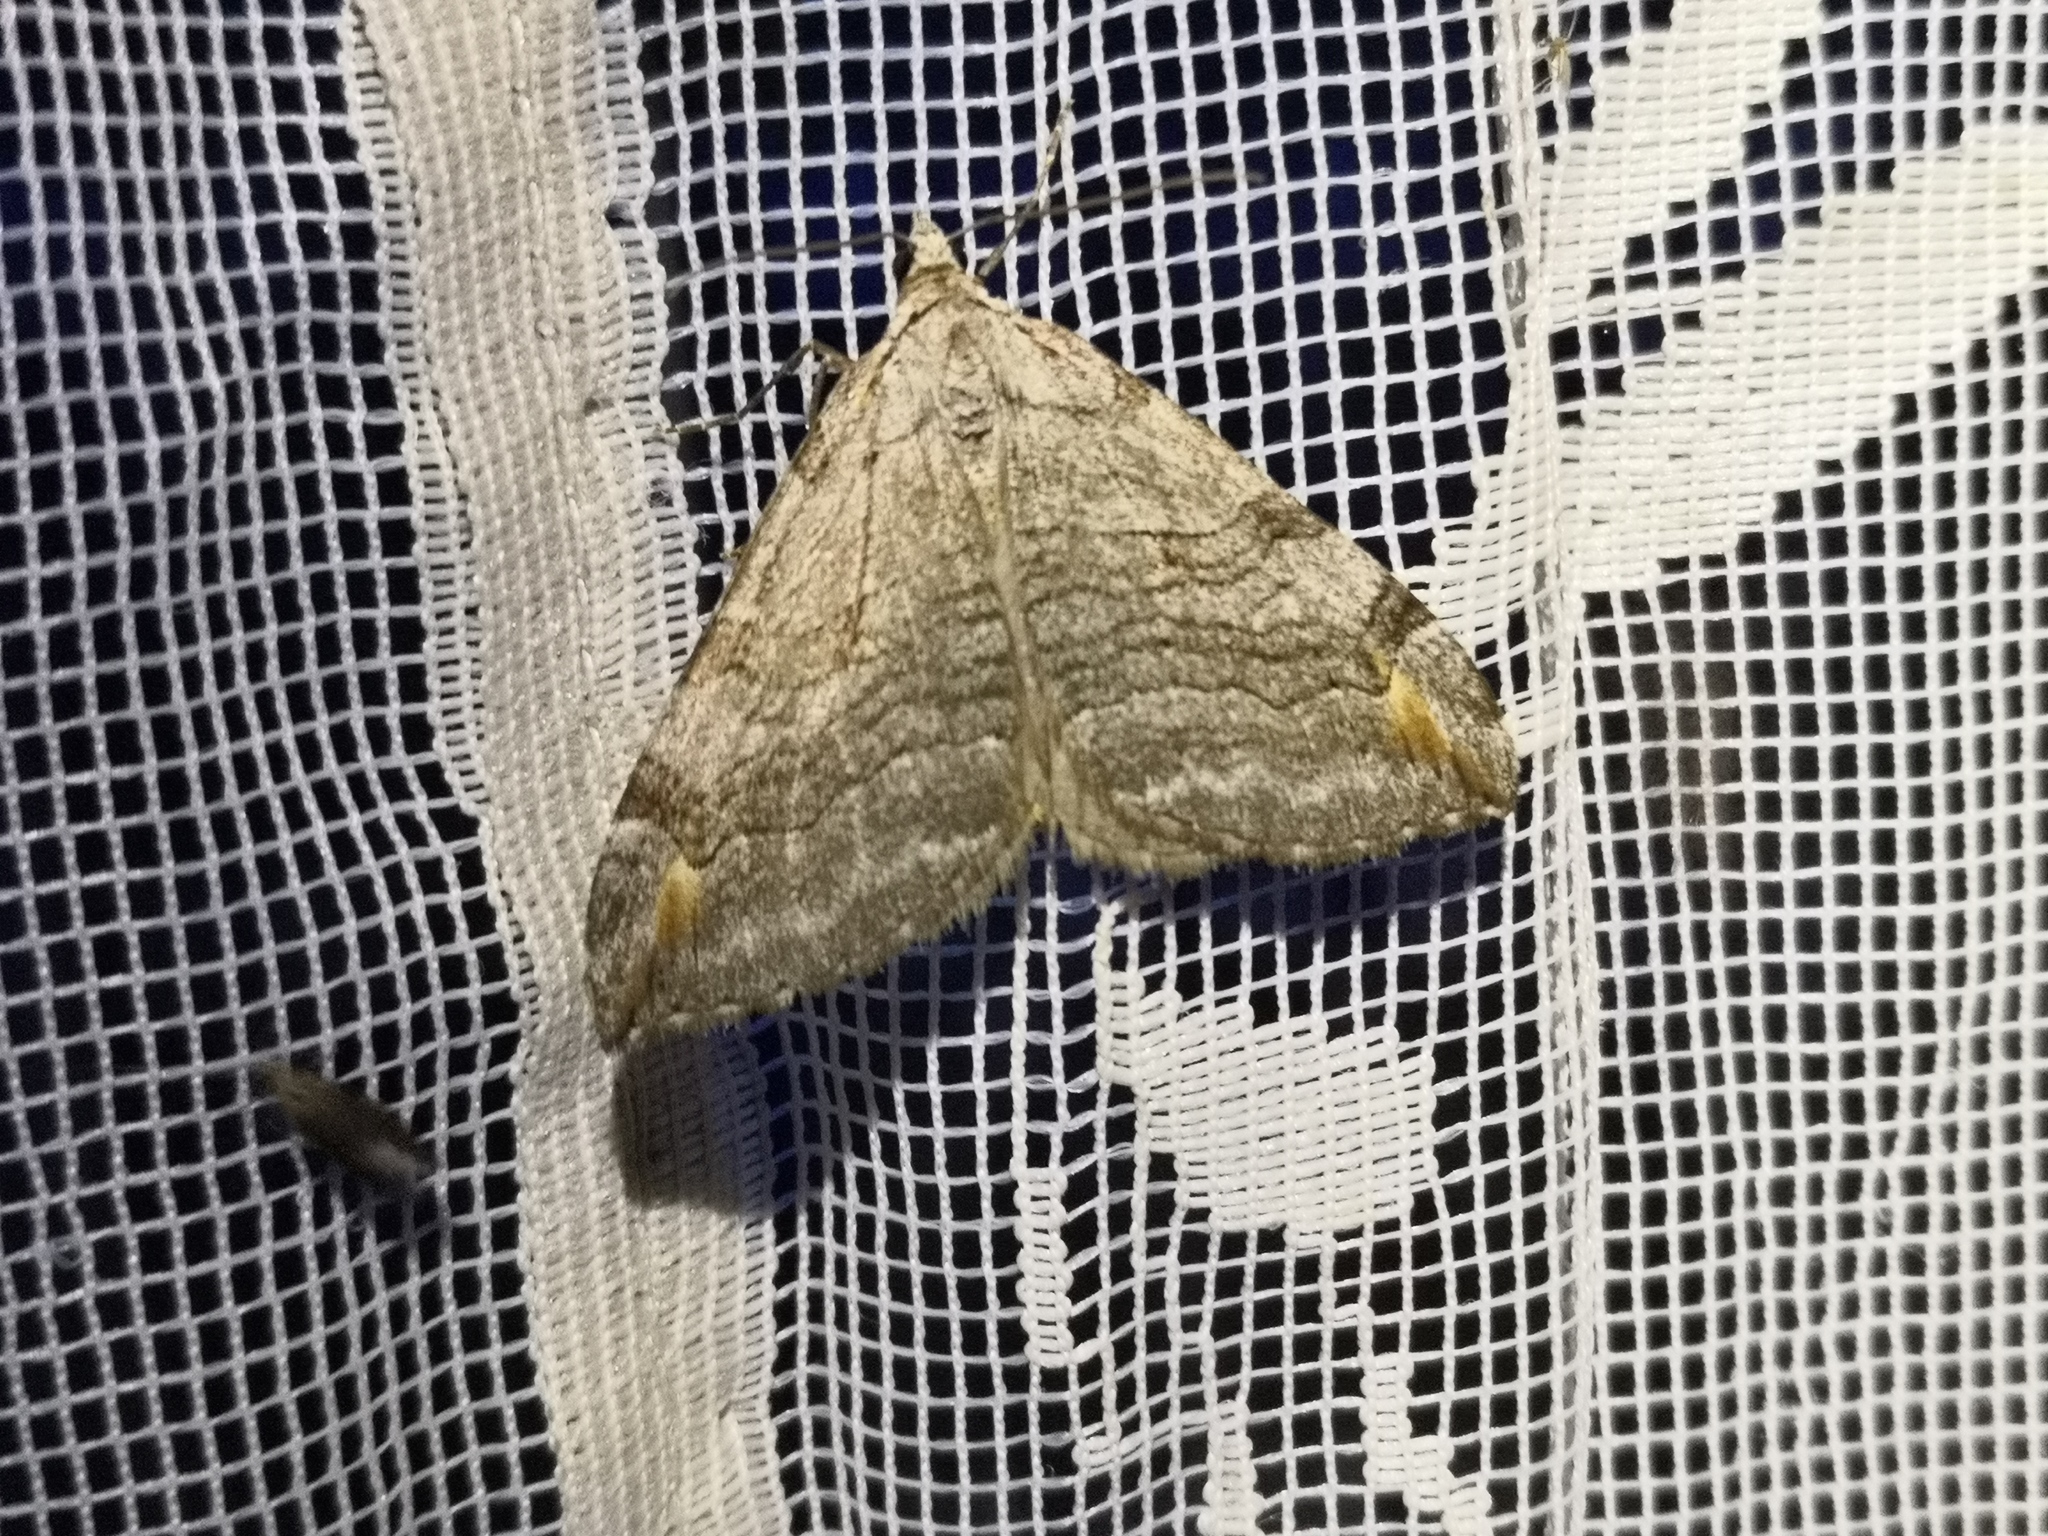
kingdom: Animalia
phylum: Arthropoda
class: Insecta
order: Lepidoptera
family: Geometridae
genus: Aplocera
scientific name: Aplocera plagiata
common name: Treble-bar
